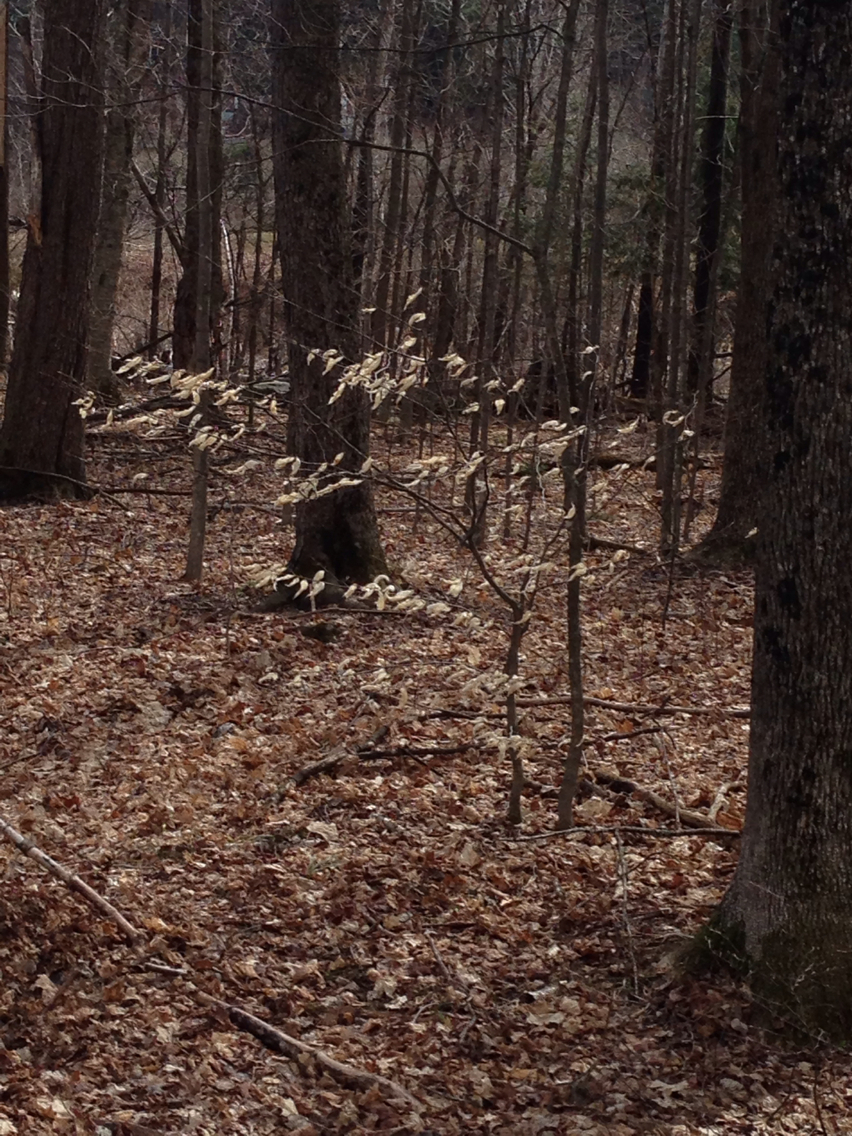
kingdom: Plantae
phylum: Tracheophyta
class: Magnoliopsida
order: Fagales
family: Fagaceae
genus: Fagus
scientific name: Fagus grandifolia
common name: American beech
